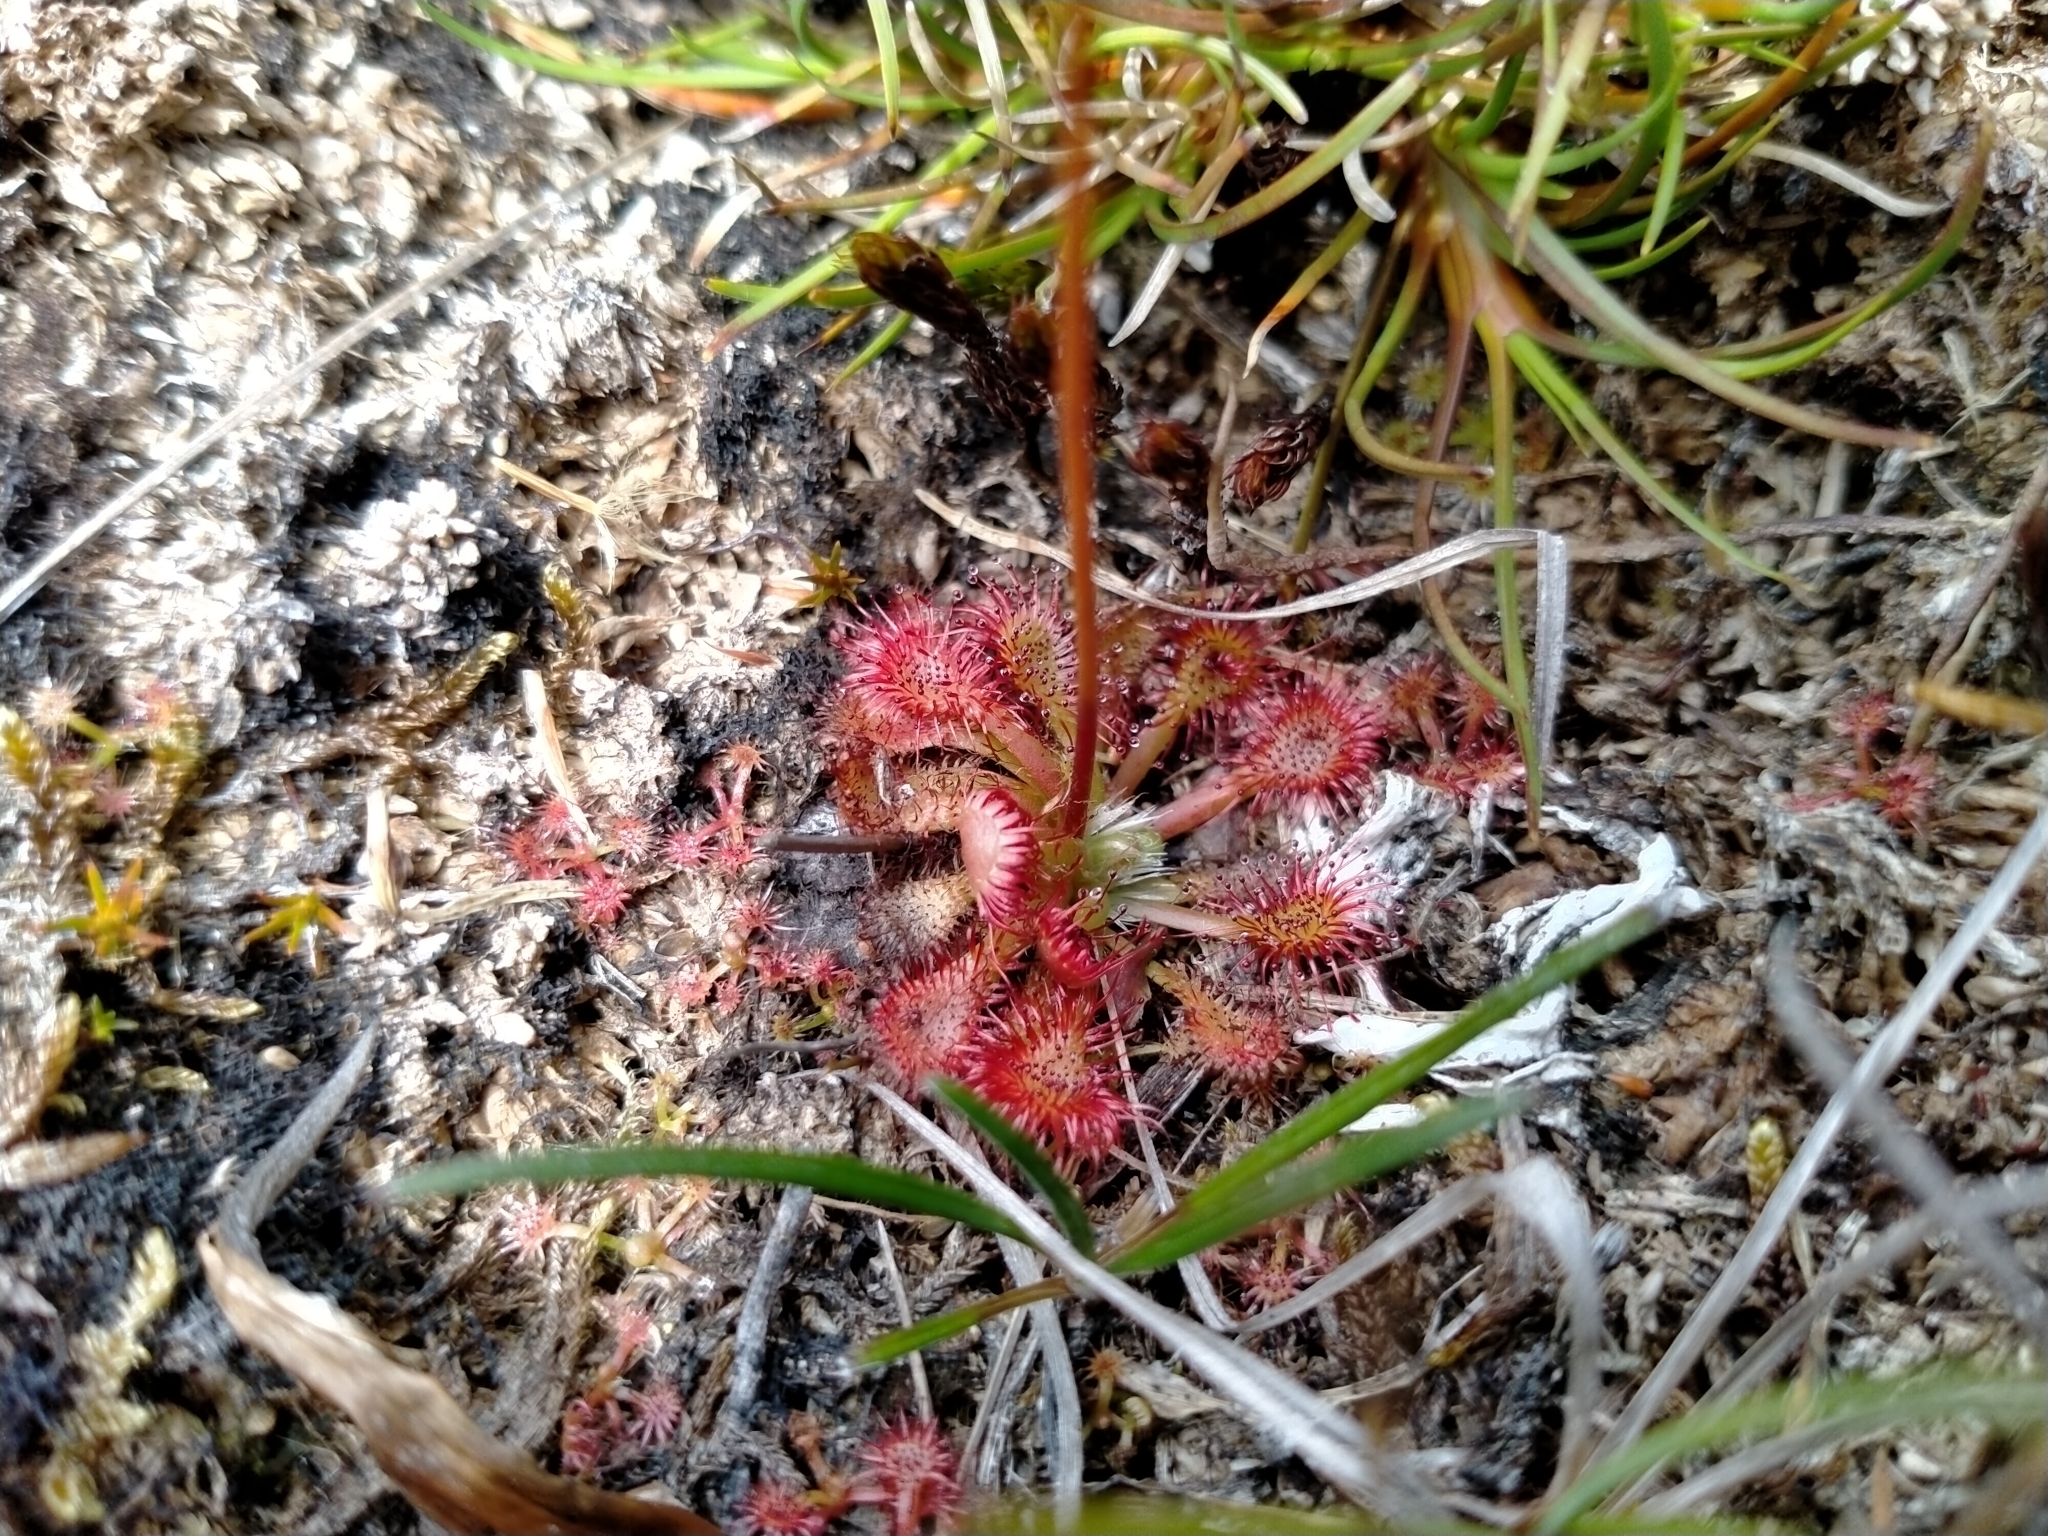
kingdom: Plantae
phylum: Tracheophyta
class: Magnoliopsida
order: Caryophyllales
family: Droseraceae
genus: Drosera
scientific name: Drosera spatulata
